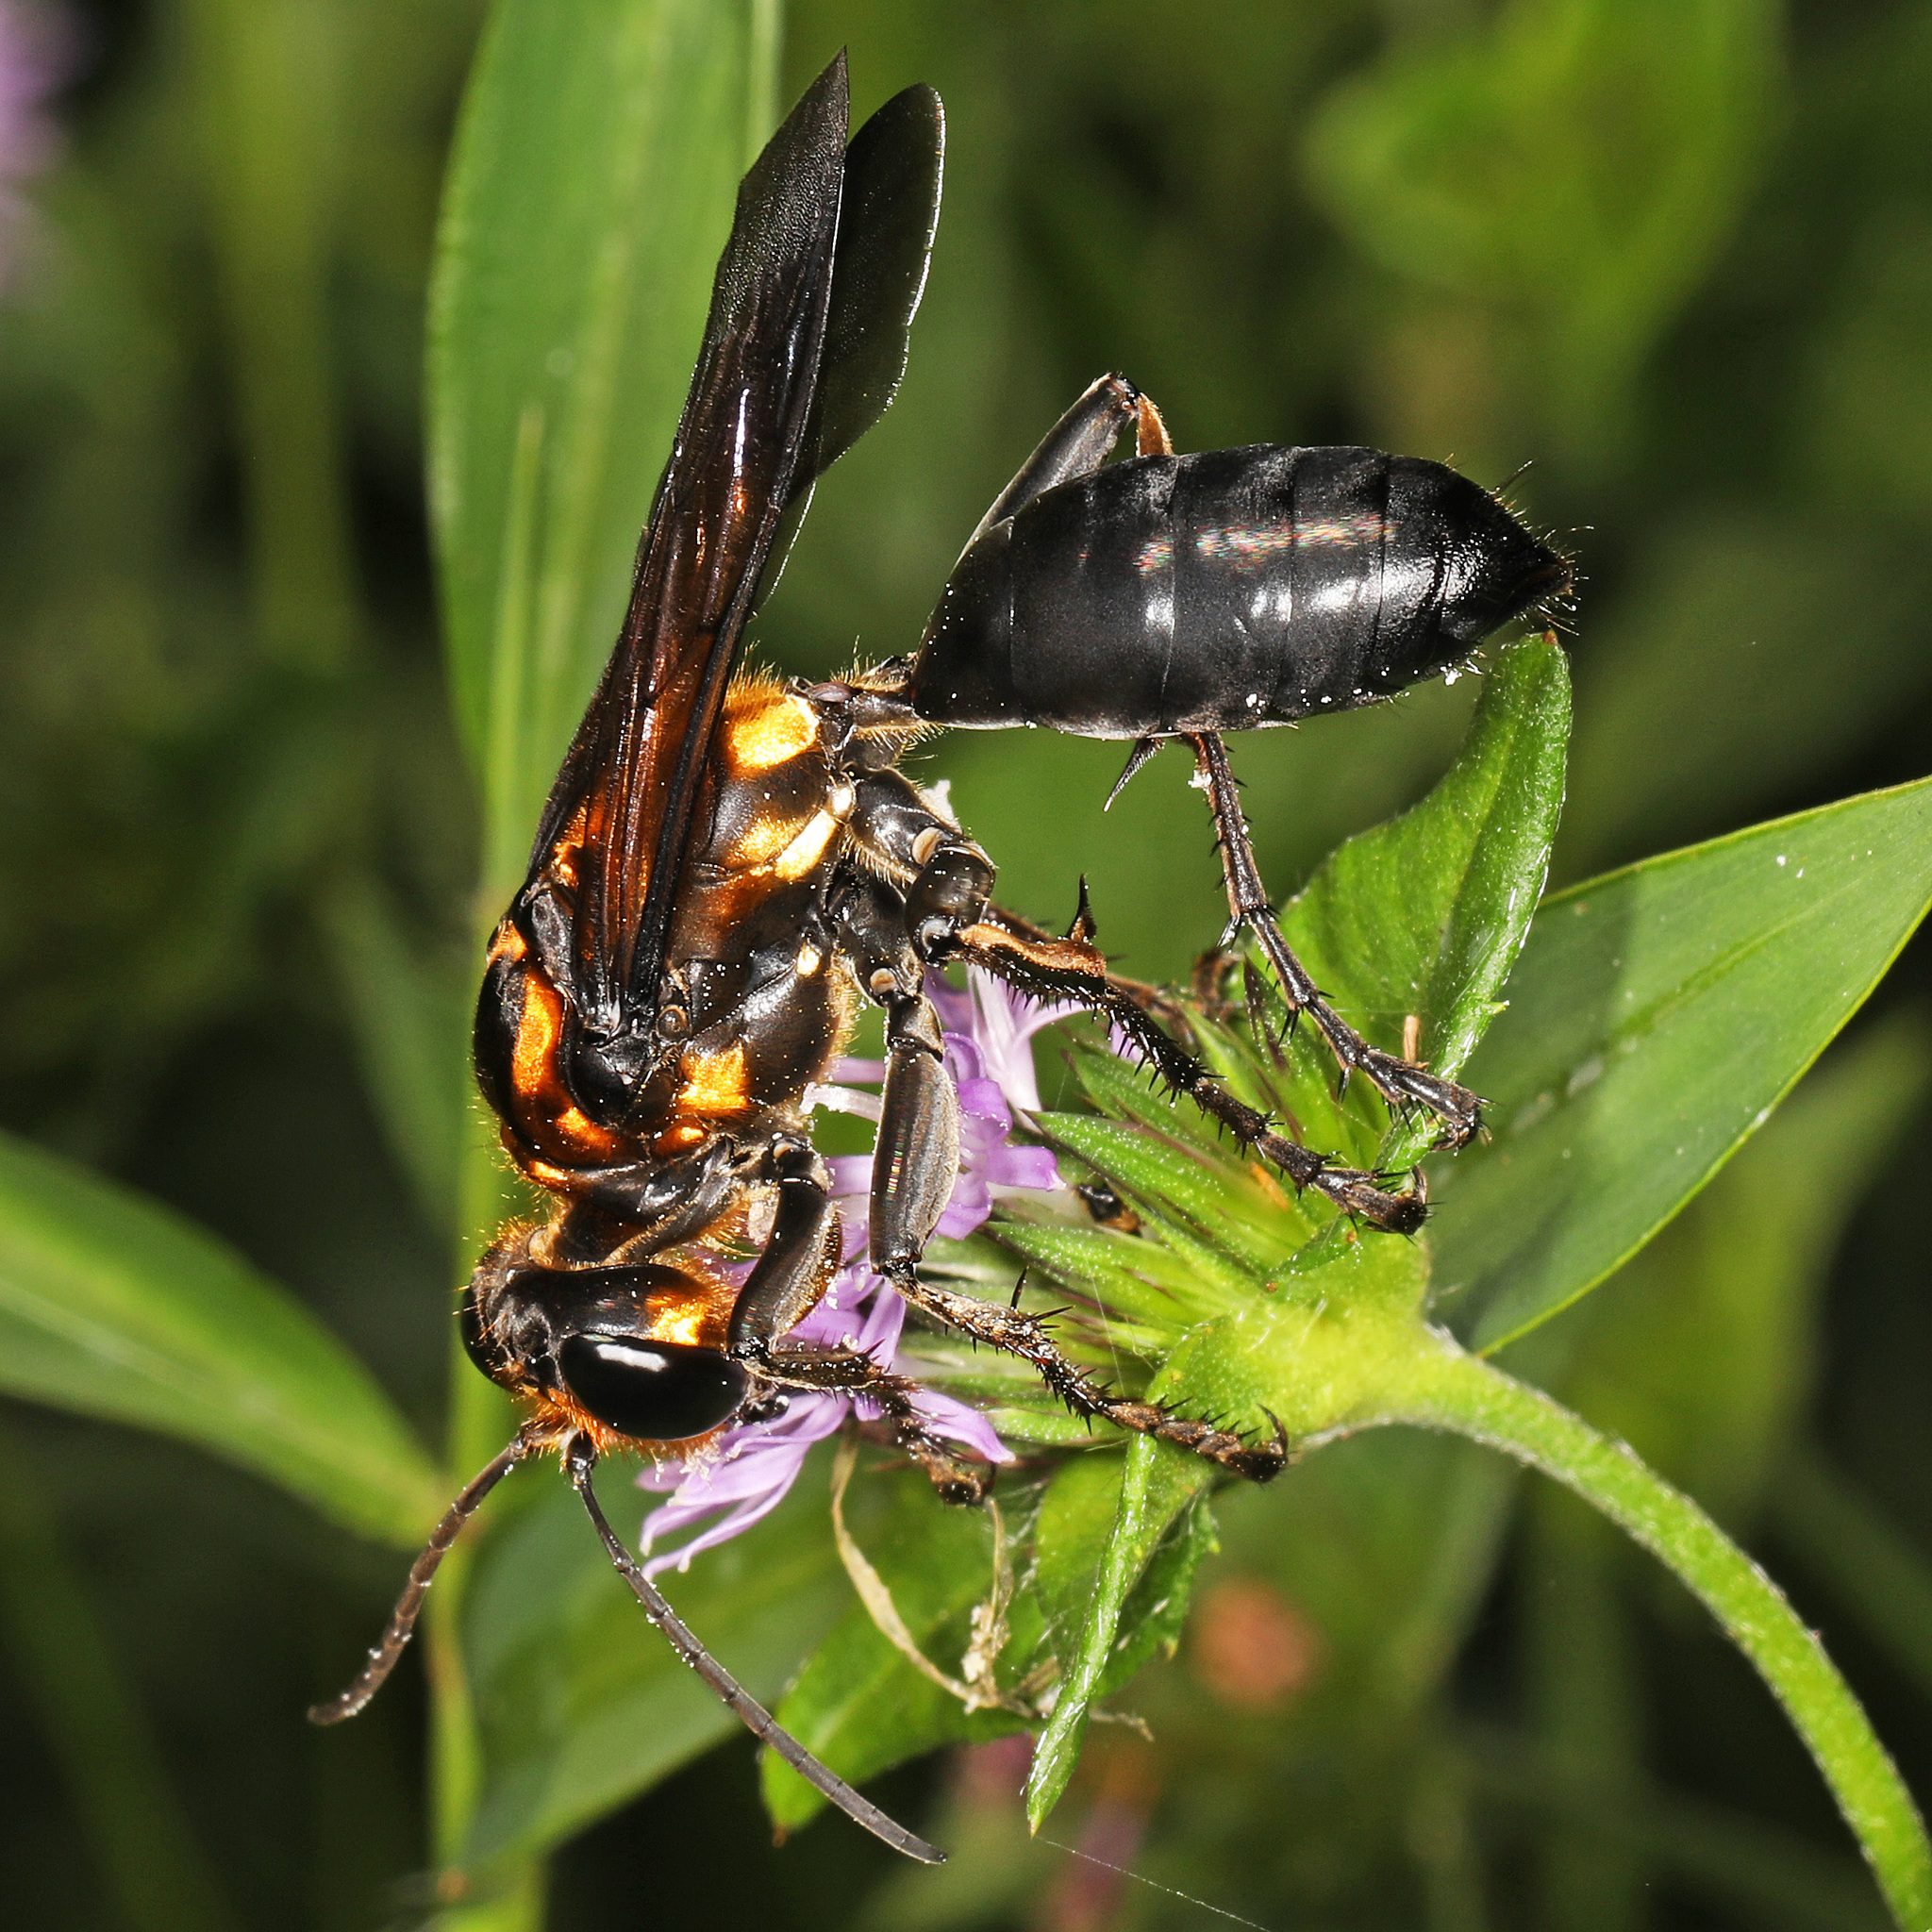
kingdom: Animalia
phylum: Arthropoda
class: Insecta
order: Hymenoptera
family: Sphecidae
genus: Sphex
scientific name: Sphex habenus
